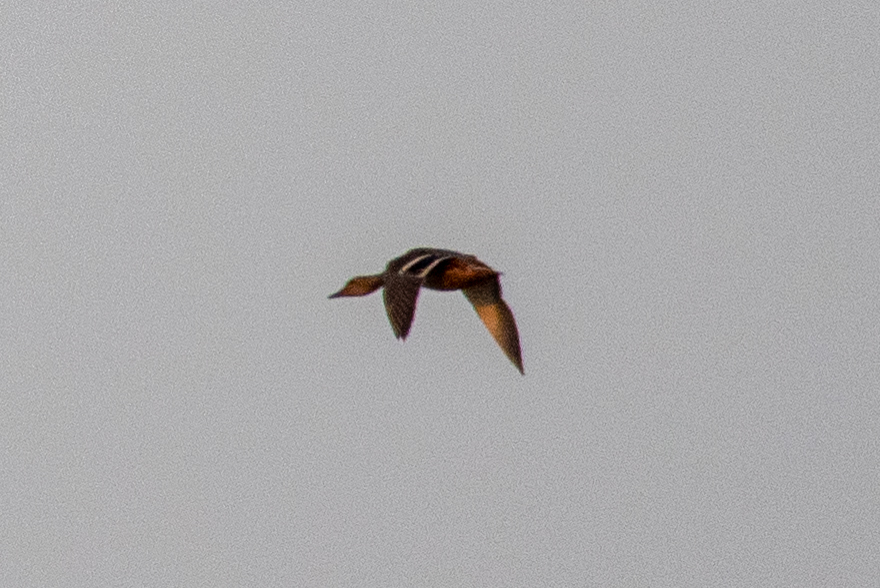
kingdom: Animalia
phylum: Chordata
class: Aves
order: Anseriformes
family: Anatidae
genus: Anas
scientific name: Anas platyrhynchos
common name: Mallard
